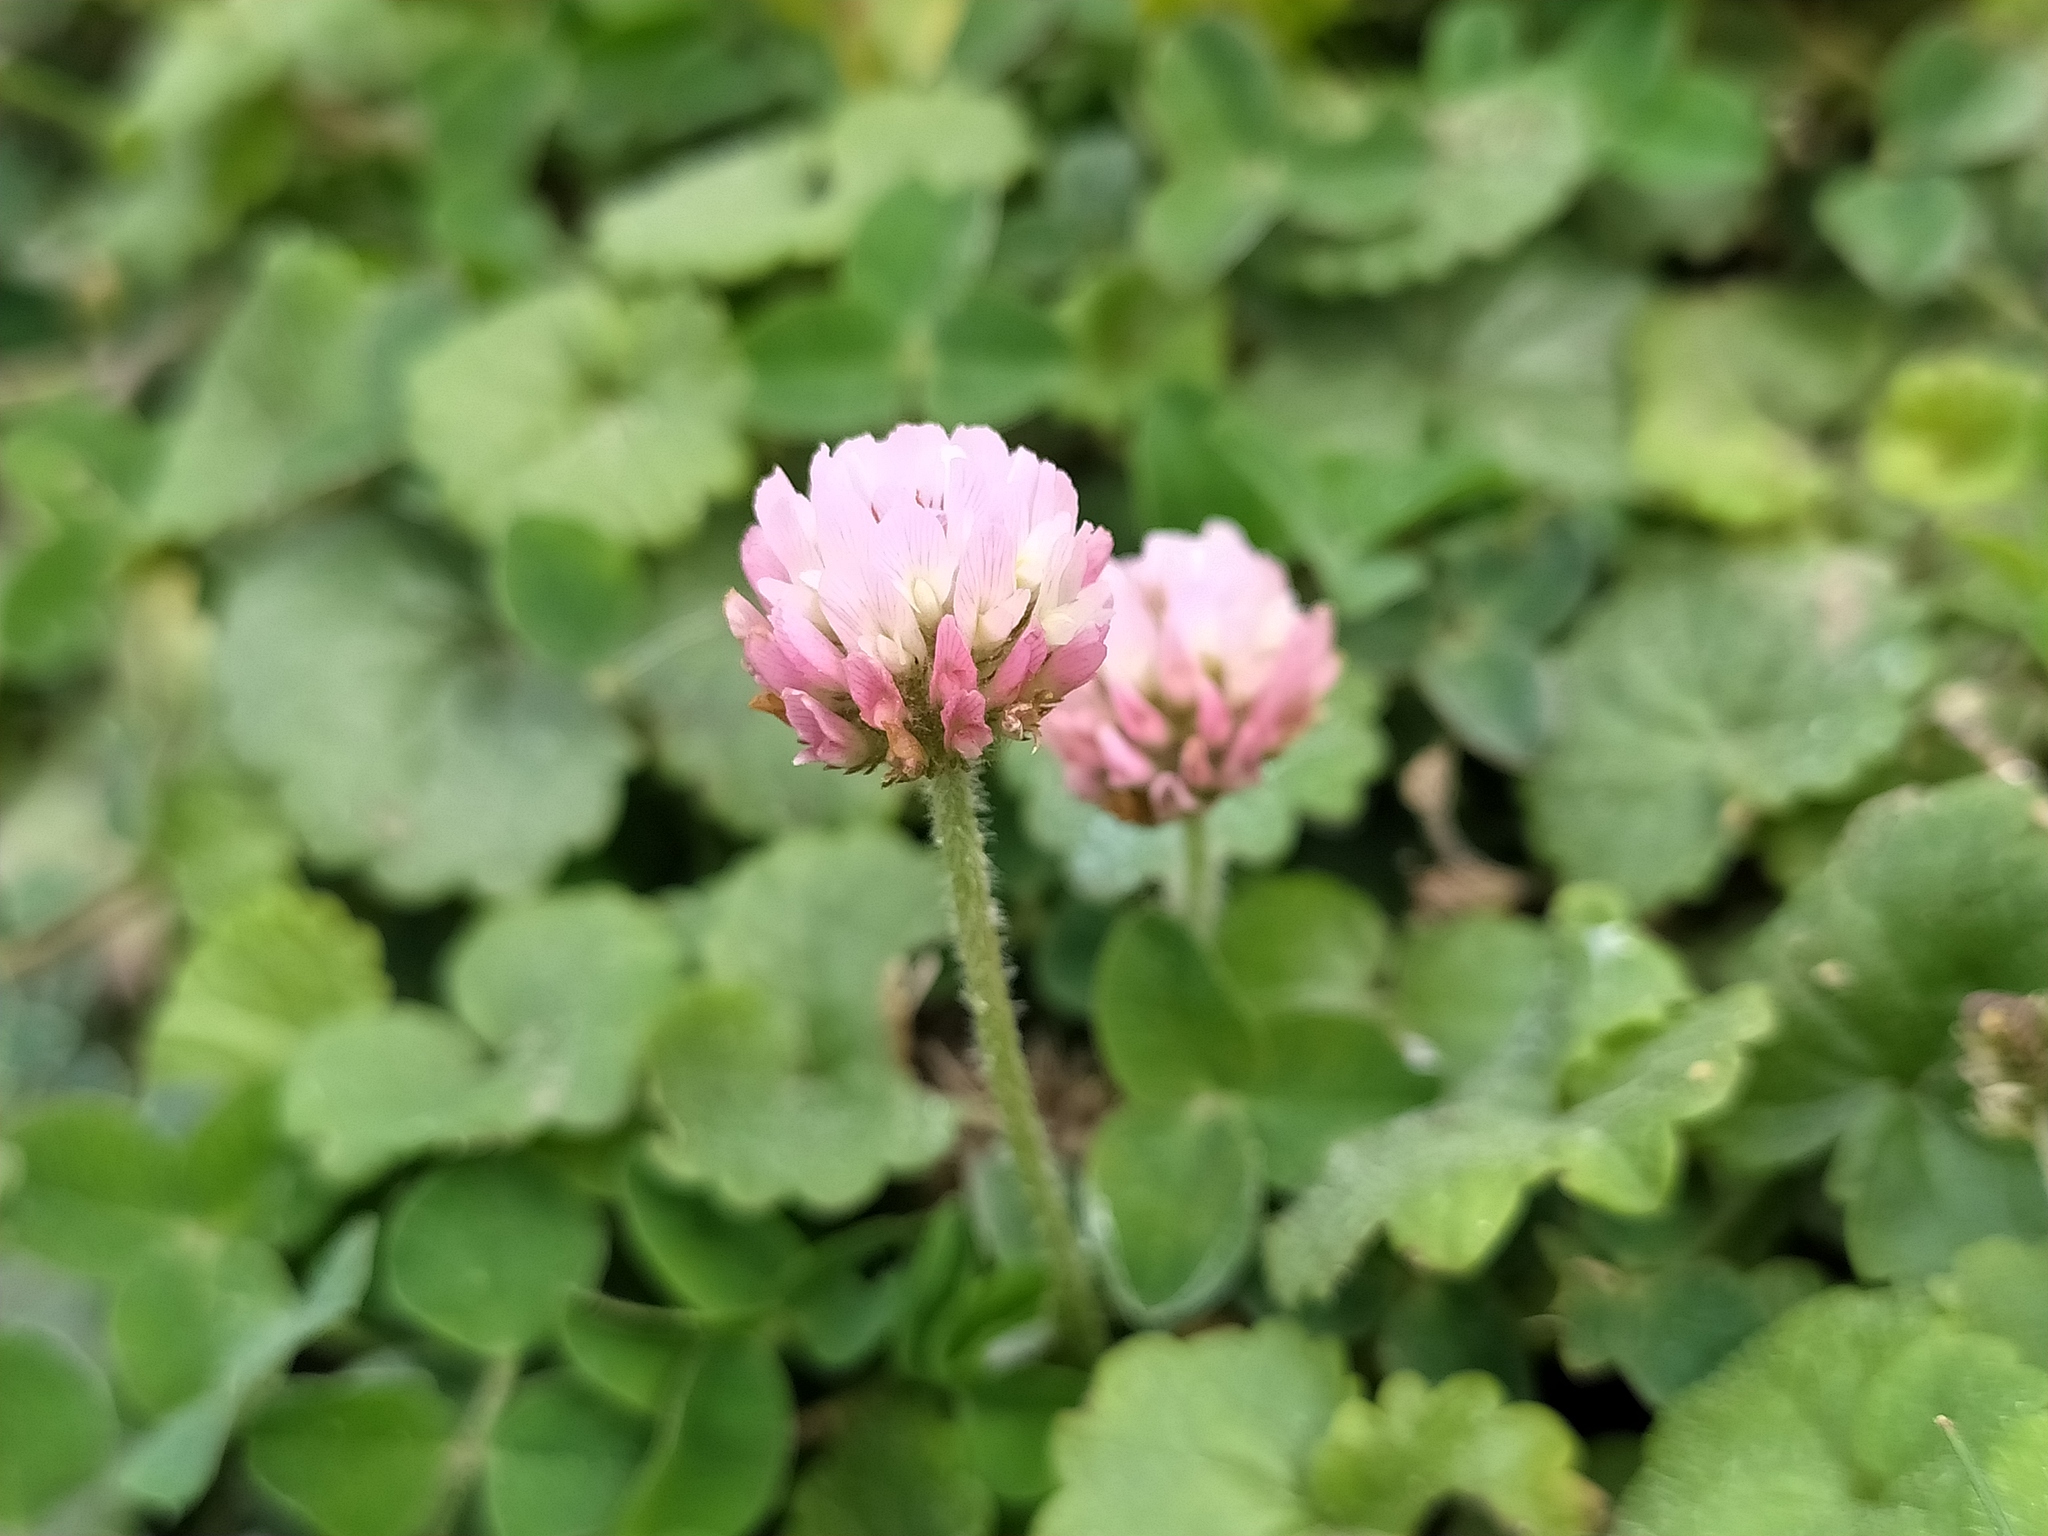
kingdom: Plantae
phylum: Tracheophyta
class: Magnoliopsida
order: Fabales
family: Fabaceae
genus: Trifolium
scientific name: Trifolium fragiferum
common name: Strawberry clover
